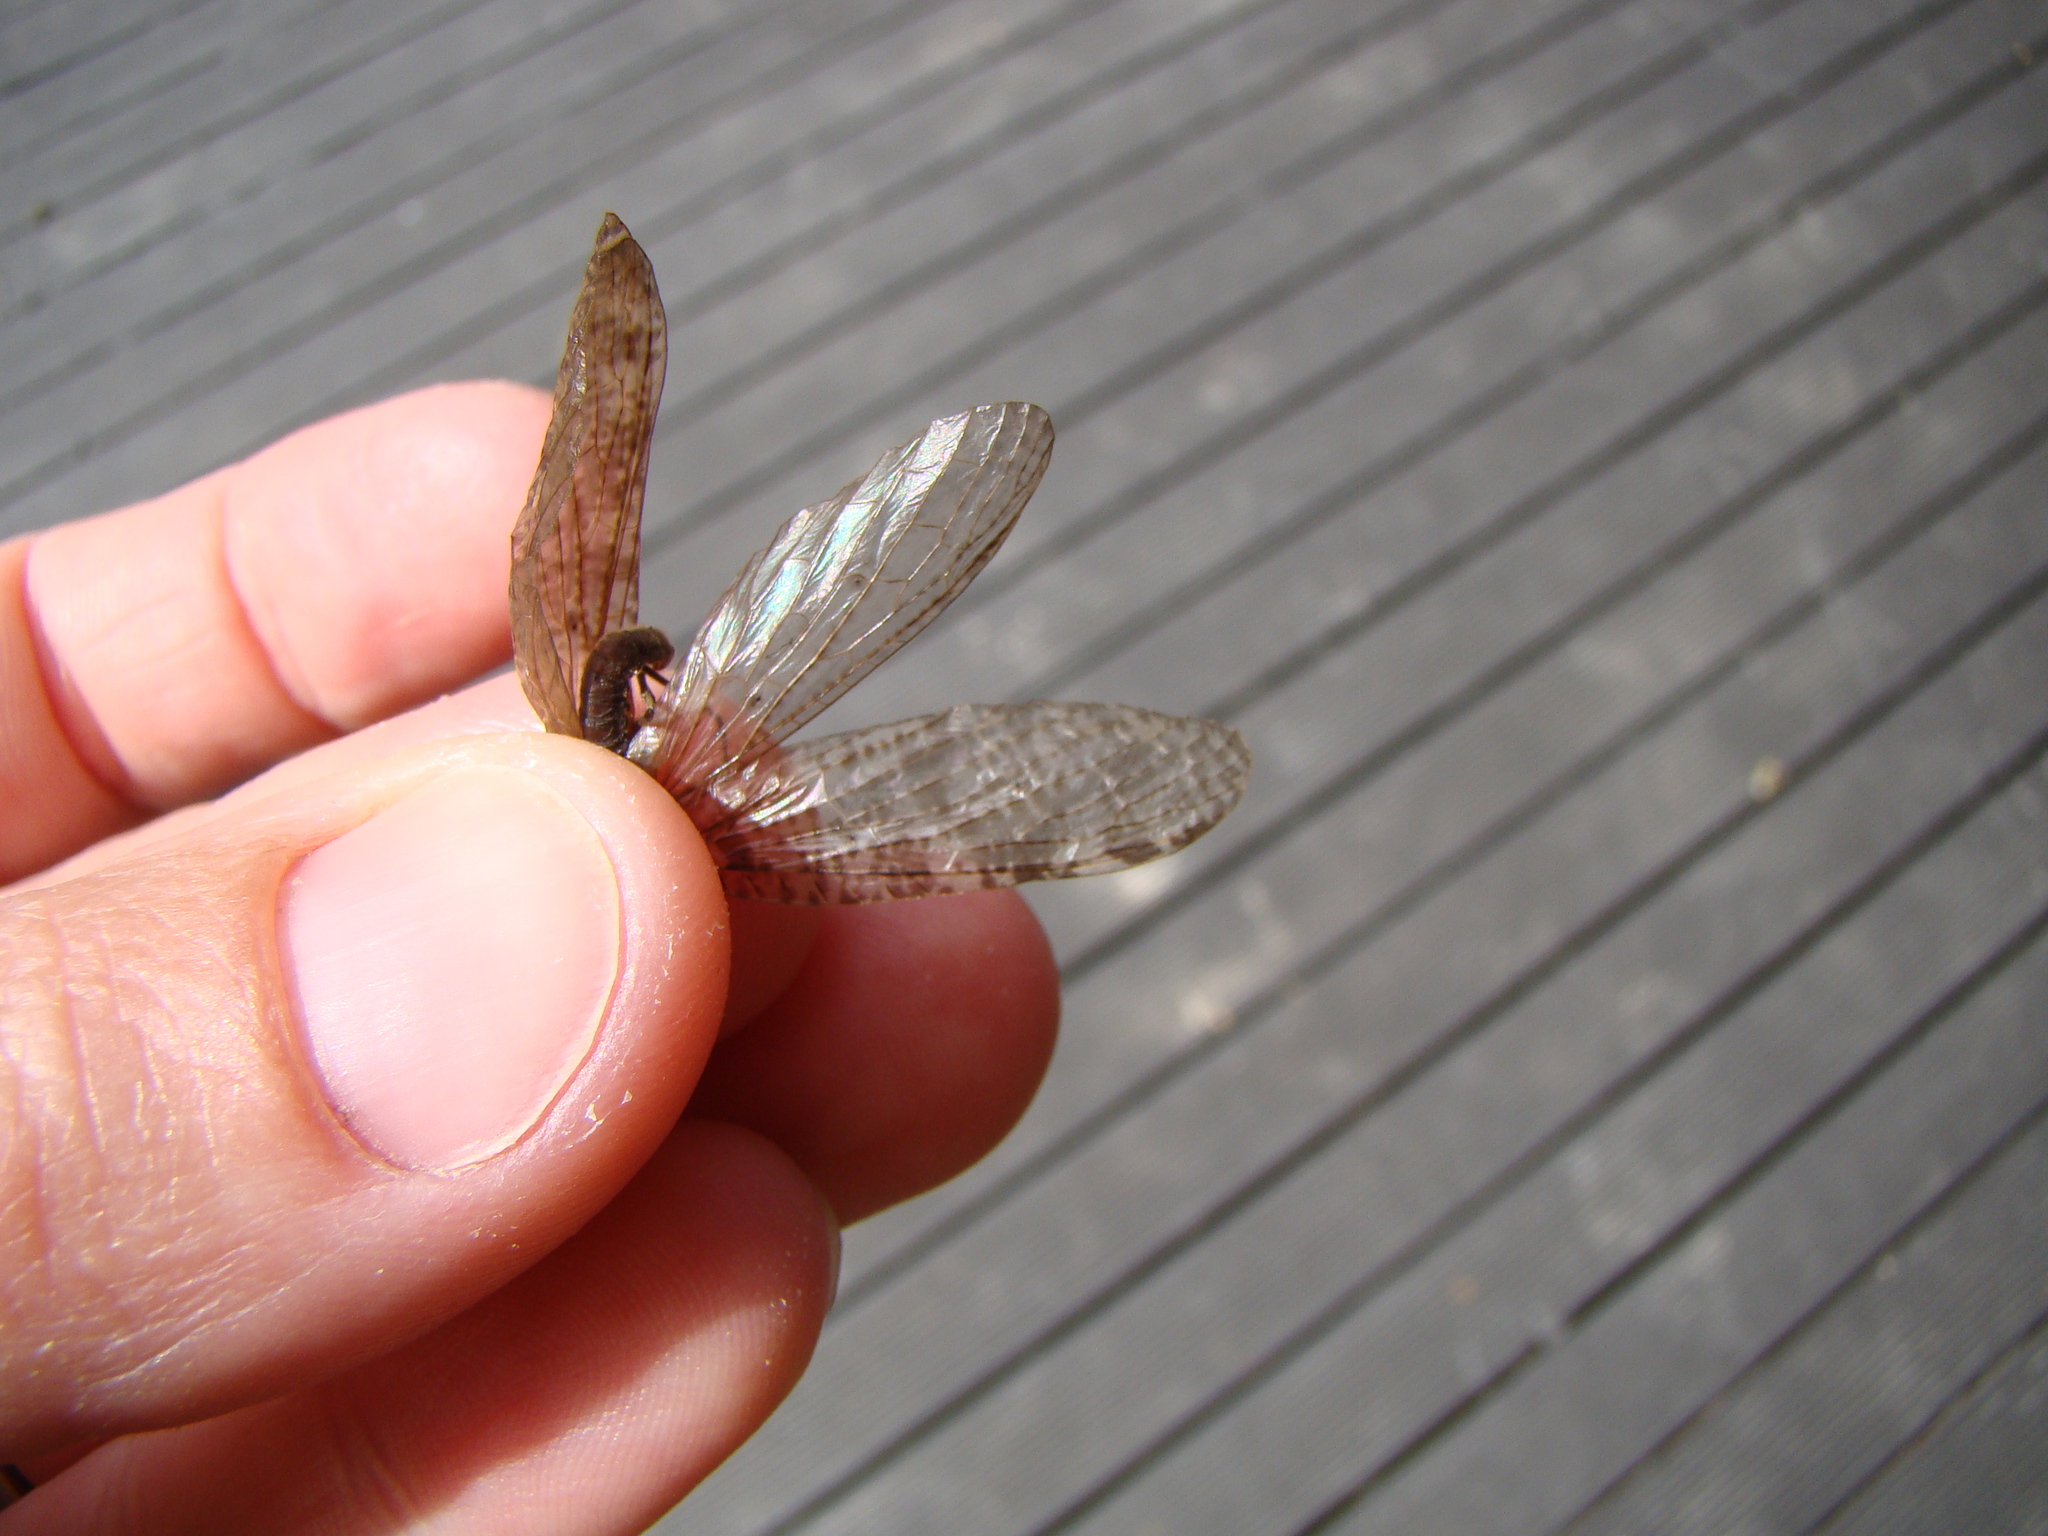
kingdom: Animalia
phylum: Arthropoda
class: Insecta
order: Megaloptera
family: Corydalidae
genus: Archichauliodes
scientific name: Archichauliodes diversus
